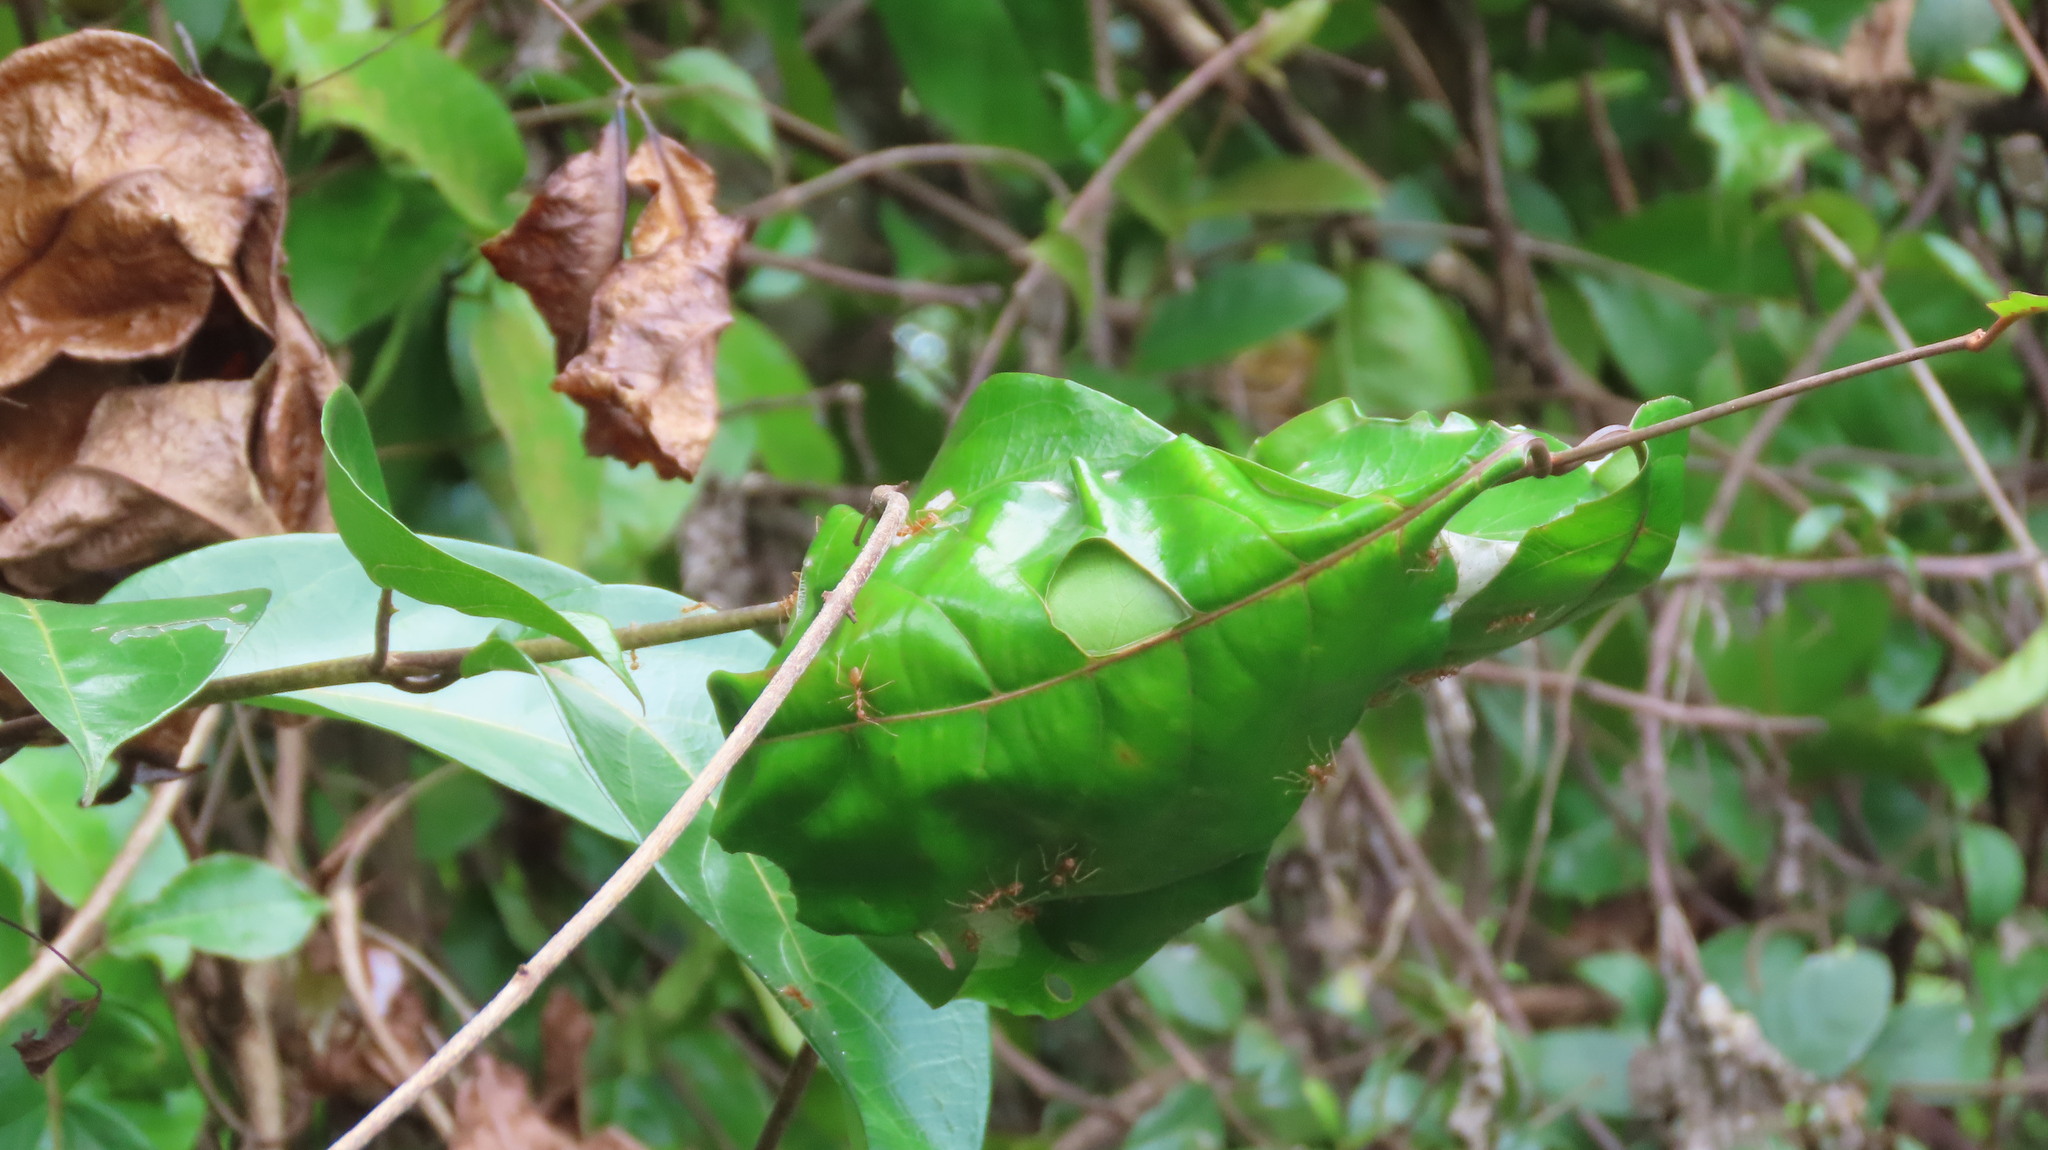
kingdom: Animalia
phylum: Arthropoda
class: Insecta
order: Hymenoptera
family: Formicidae
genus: Oecophylla
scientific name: Oecophylla smaragdina
